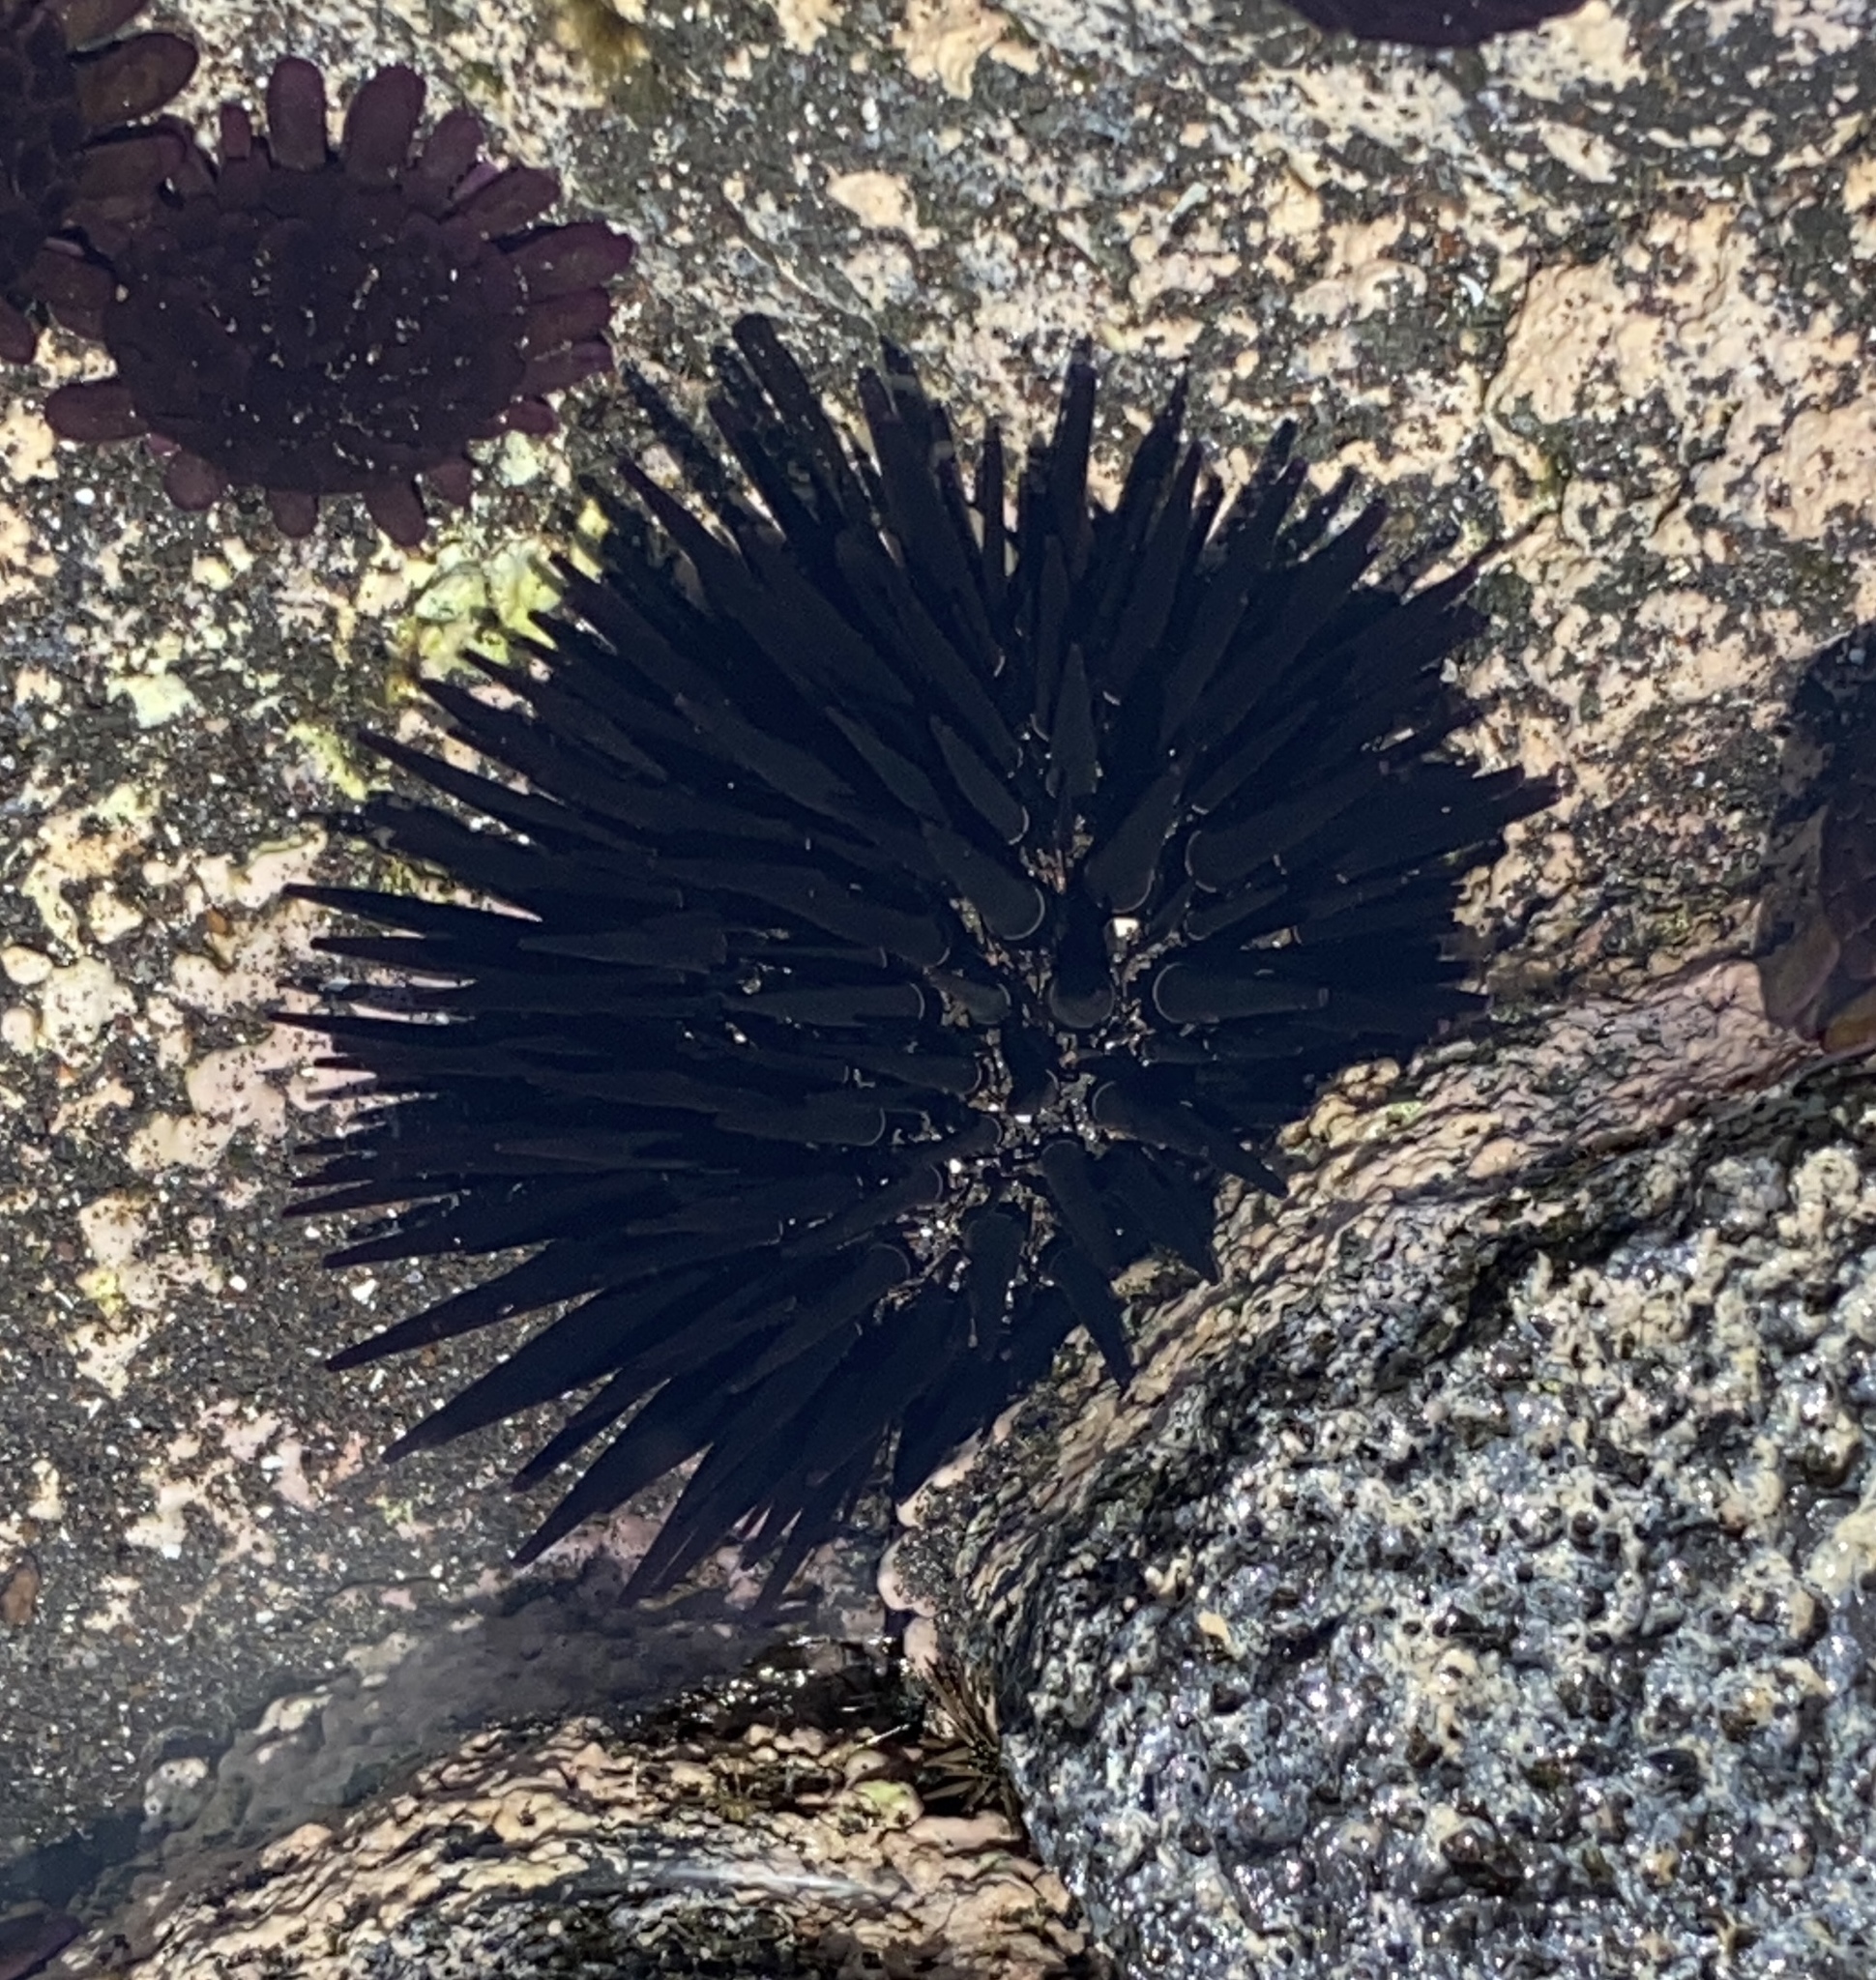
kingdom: Animalia
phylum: Echinodermata
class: Echinoidea
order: Camarodonta
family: Echinometridae
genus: Echinometra
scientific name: Echinometra oblonga
